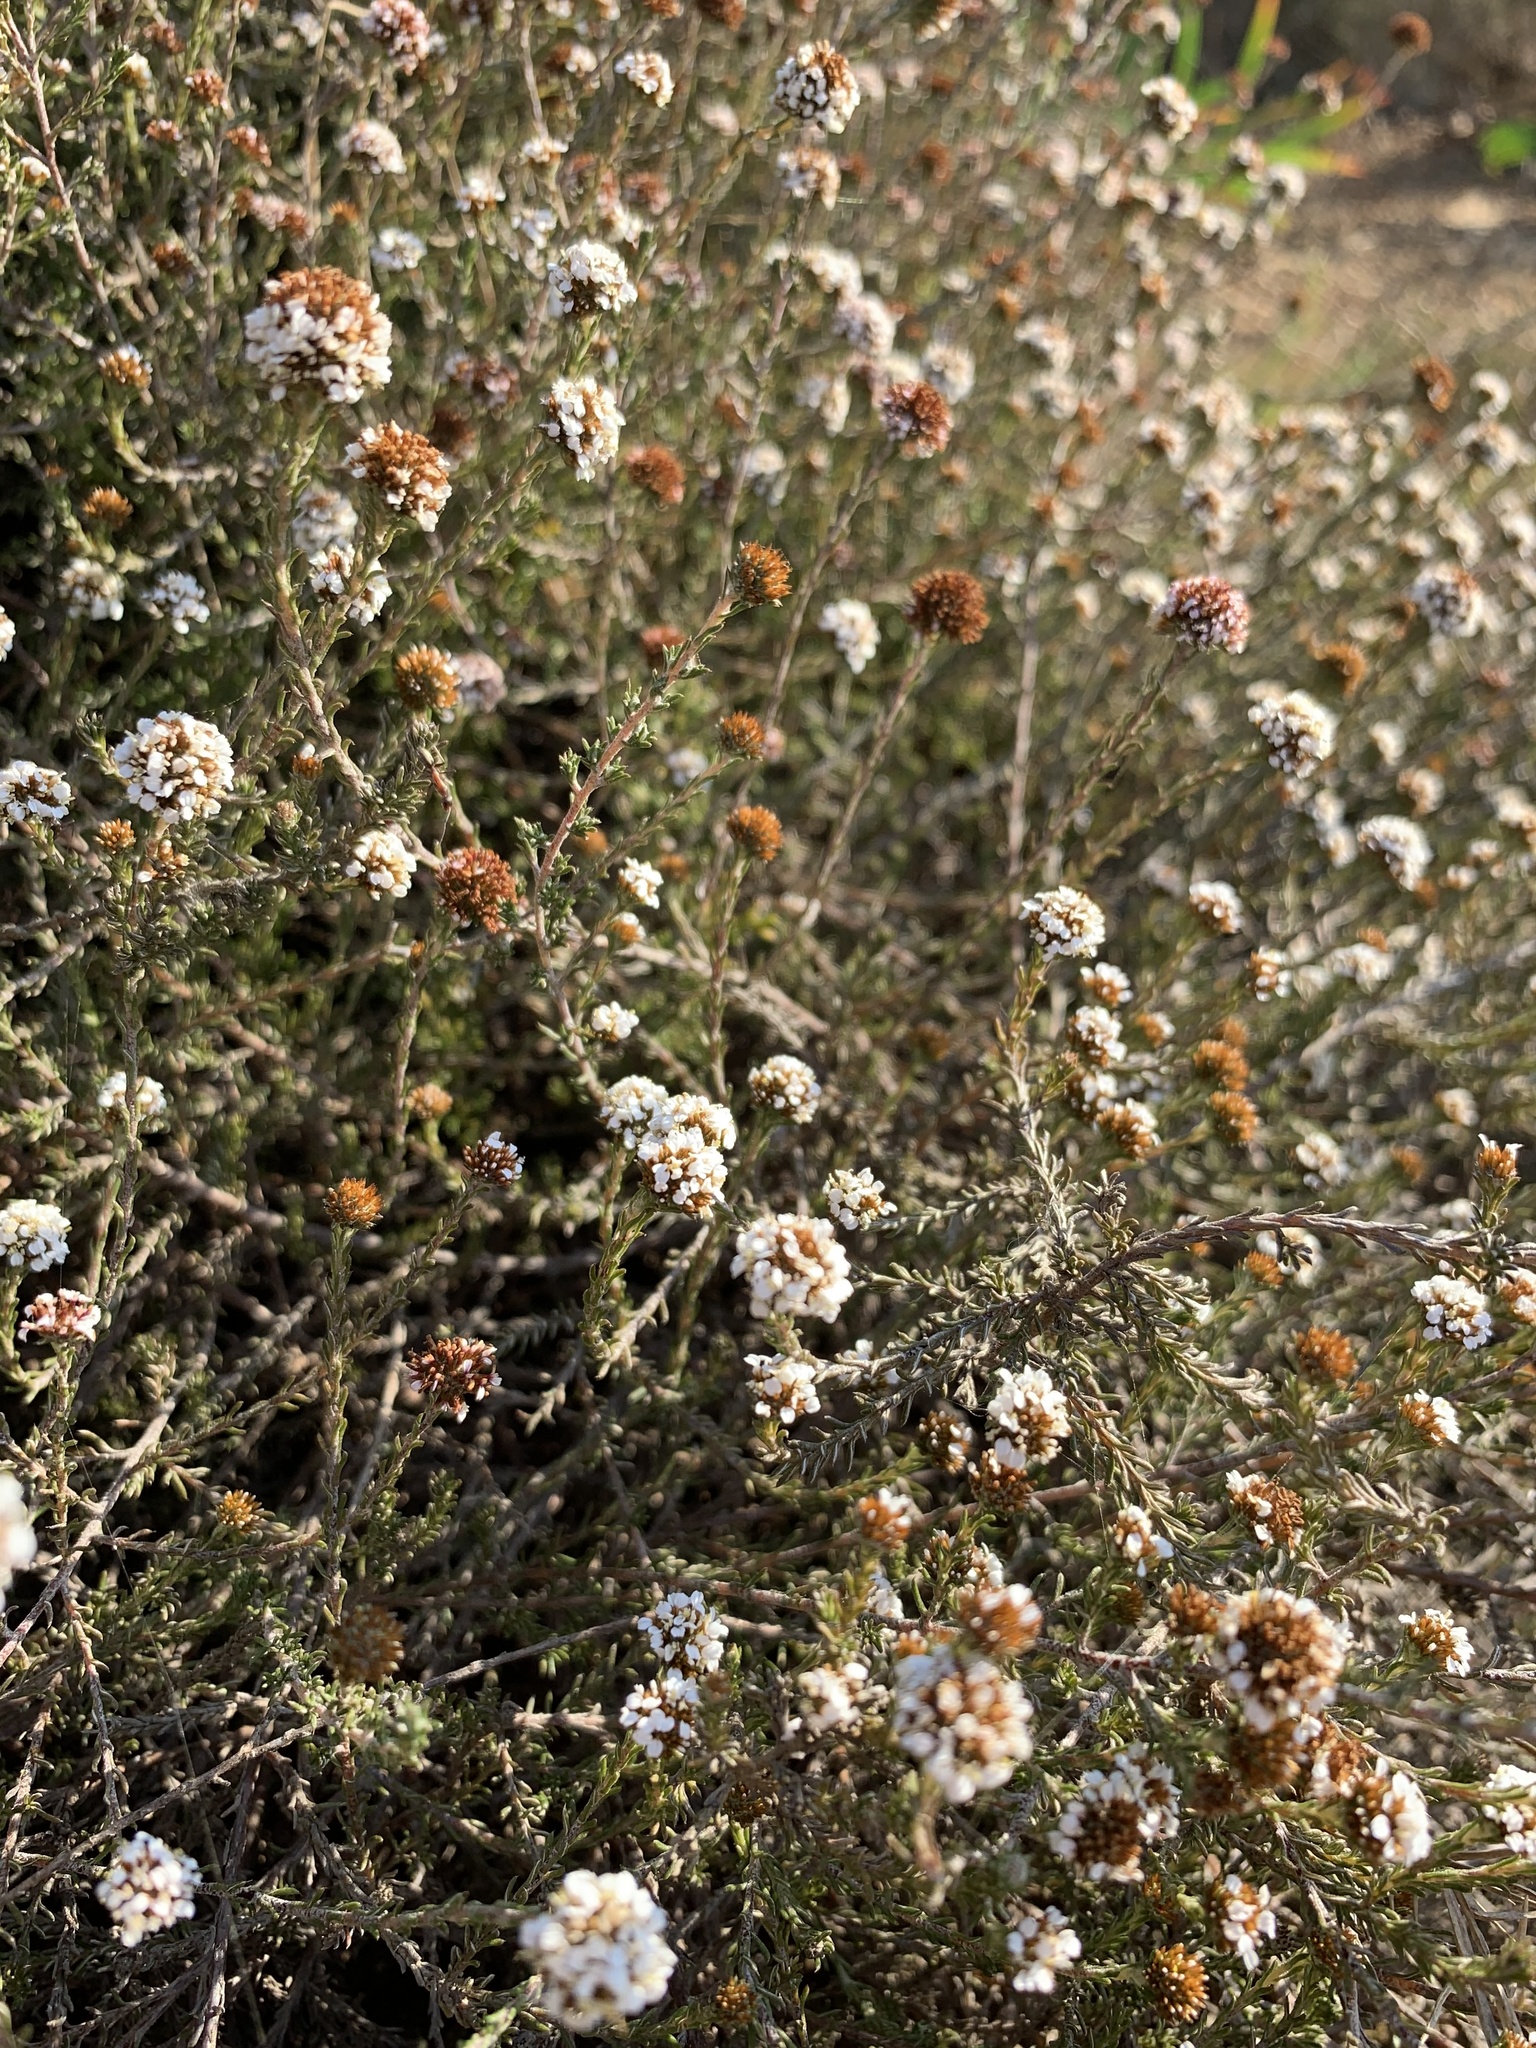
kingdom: Plantae
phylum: Tracheophyta
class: Magnoliopsida
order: Asterales
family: Asteraceae
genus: Disparago
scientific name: Disparago ericoides
